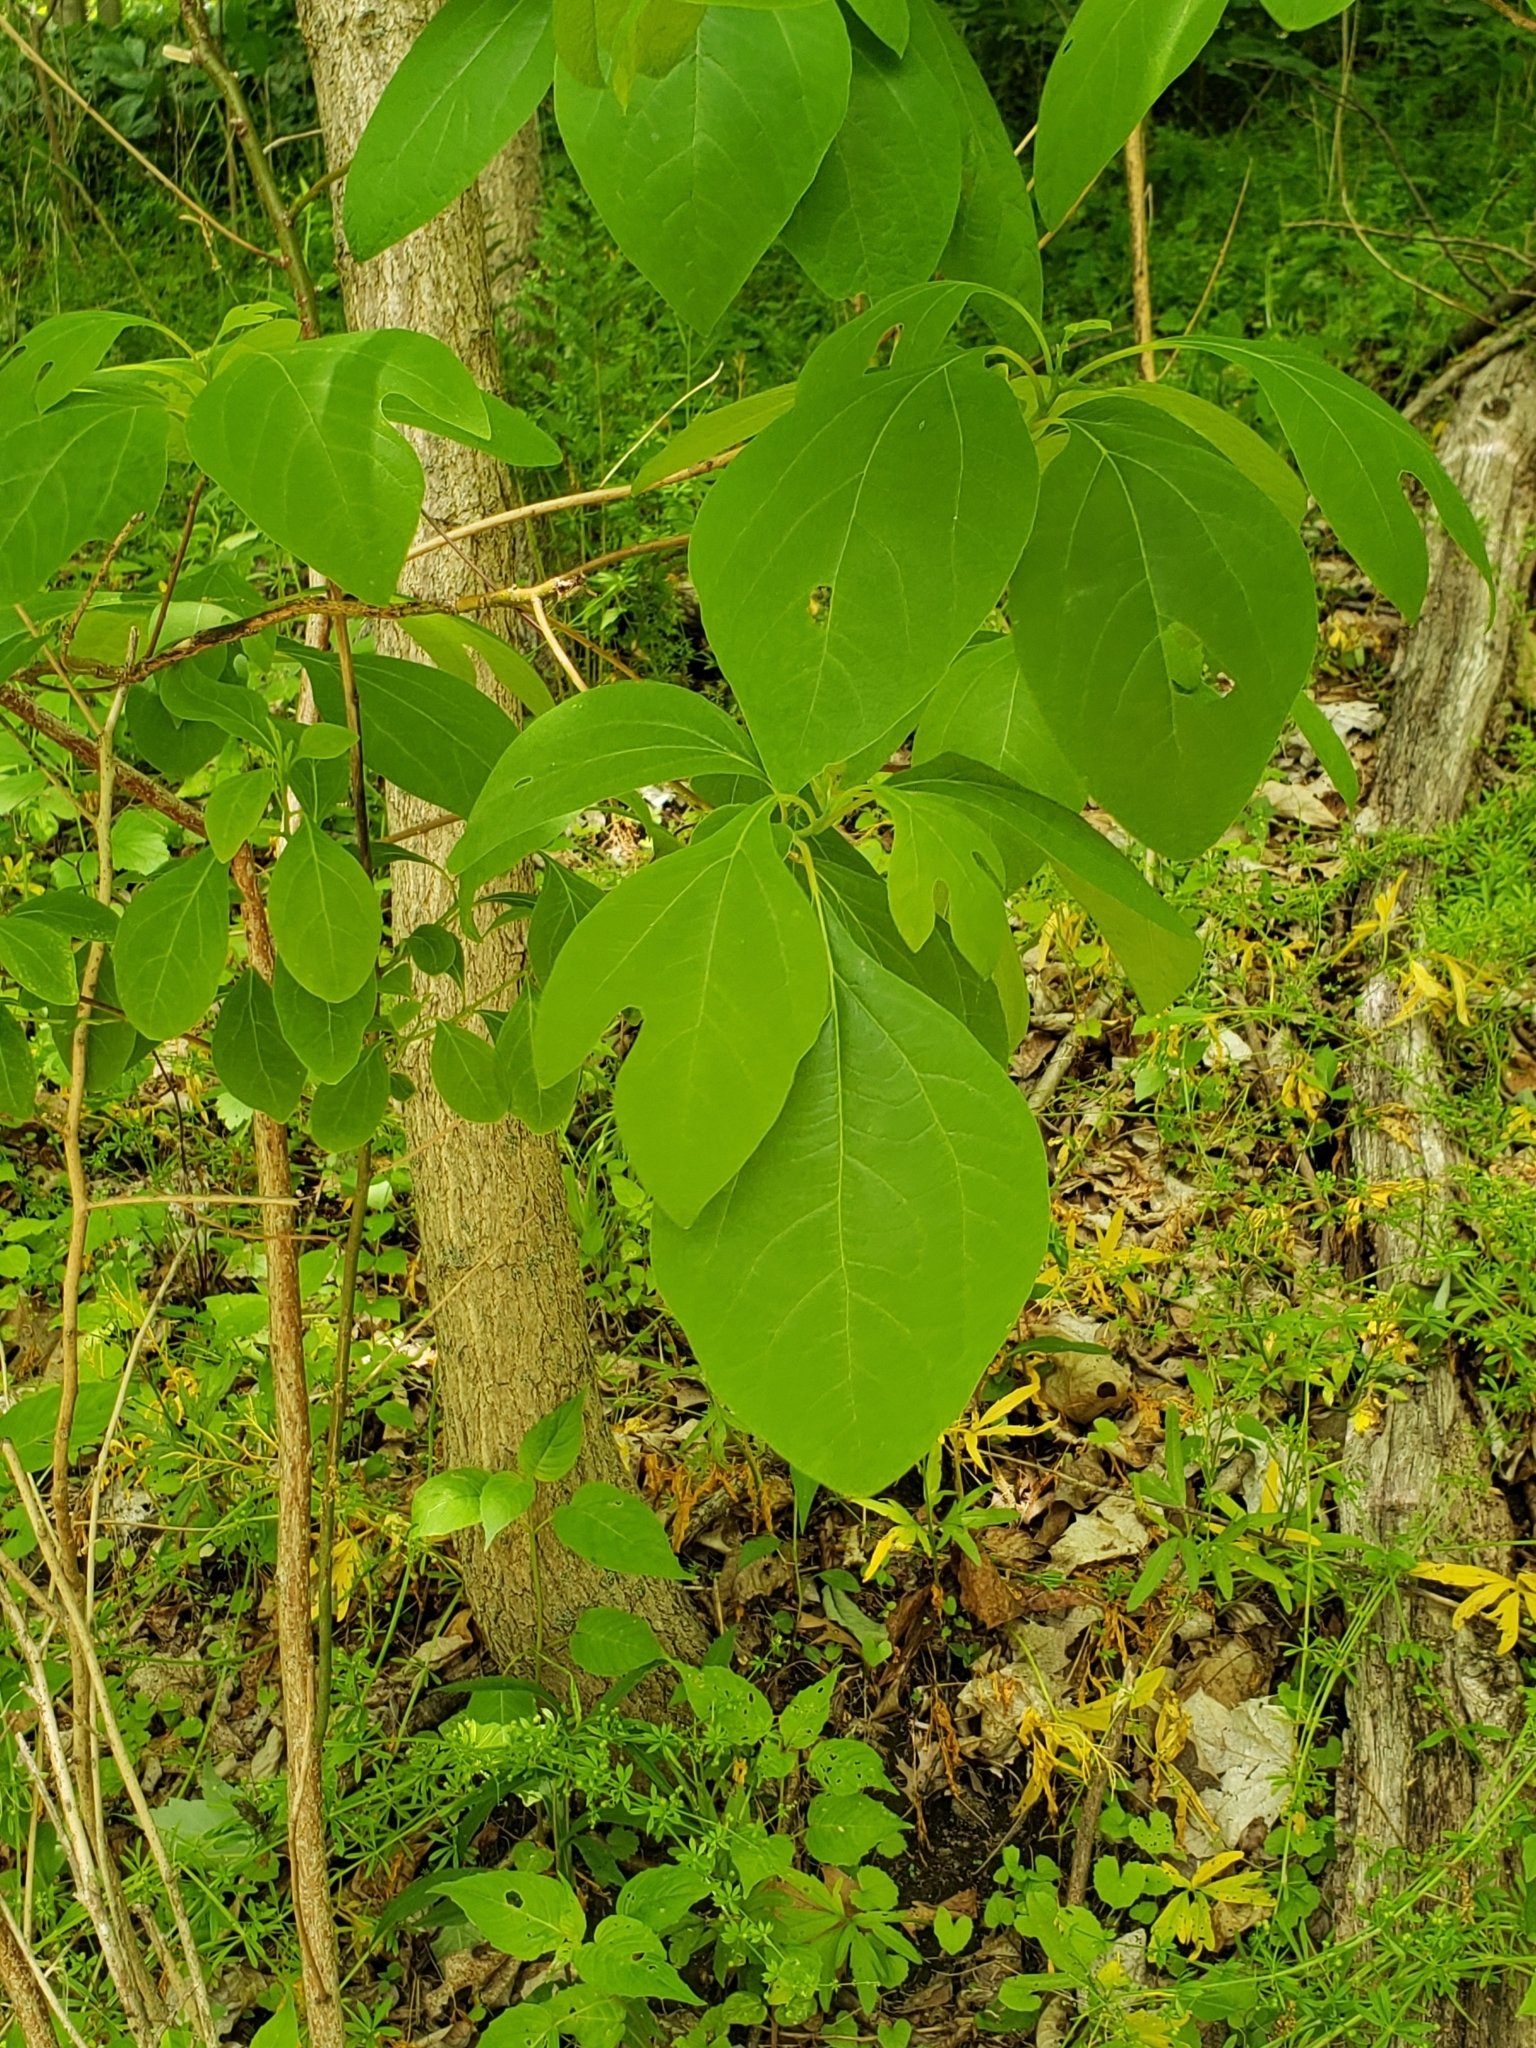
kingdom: Plantae
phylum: Tracheophyta
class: Magnoliopsida
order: Laurales
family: Lauraceae
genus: Sassafras
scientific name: Sassafras albidum
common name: Sassafras
